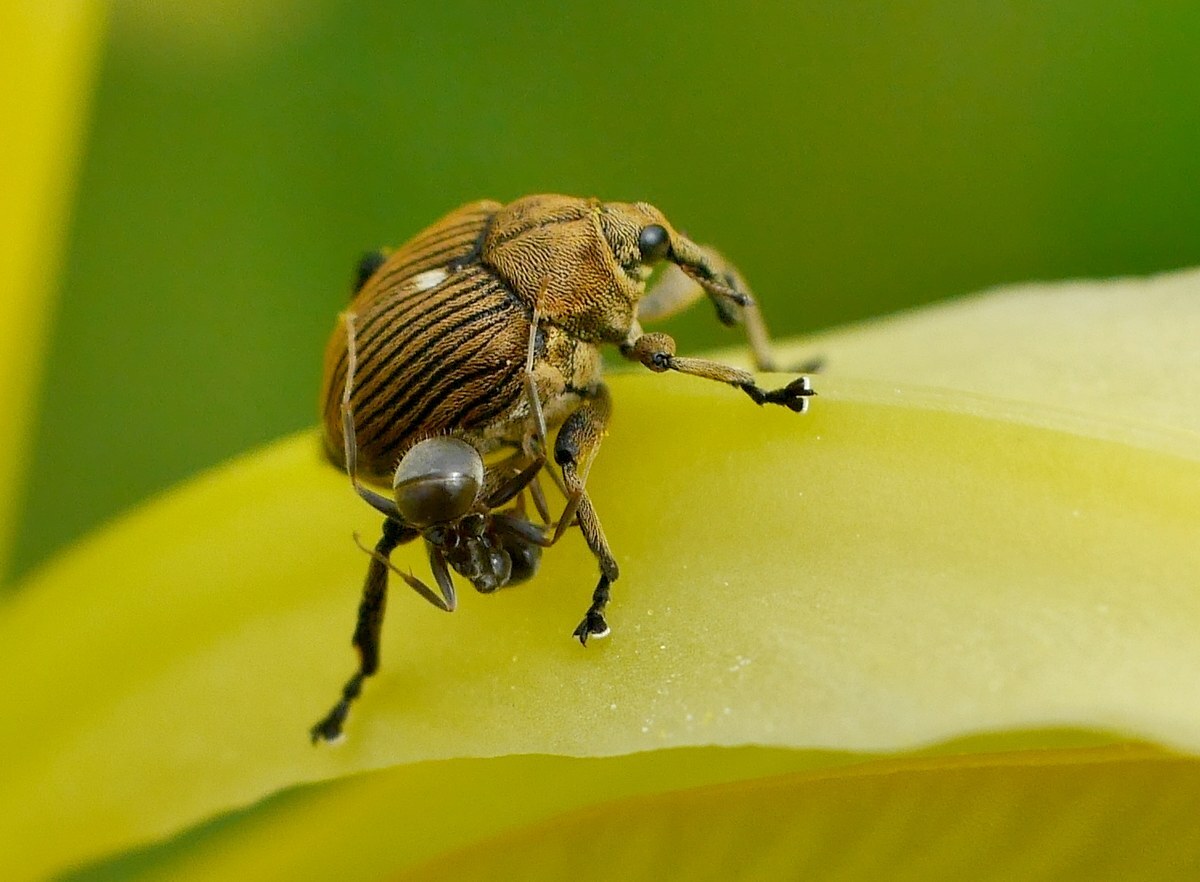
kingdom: Animalia
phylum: Arthropoda
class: Insecta
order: Coleoptera
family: Curculionidae
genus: Mononychus
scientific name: Mononychus punctumalbum
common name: Iris weevil
